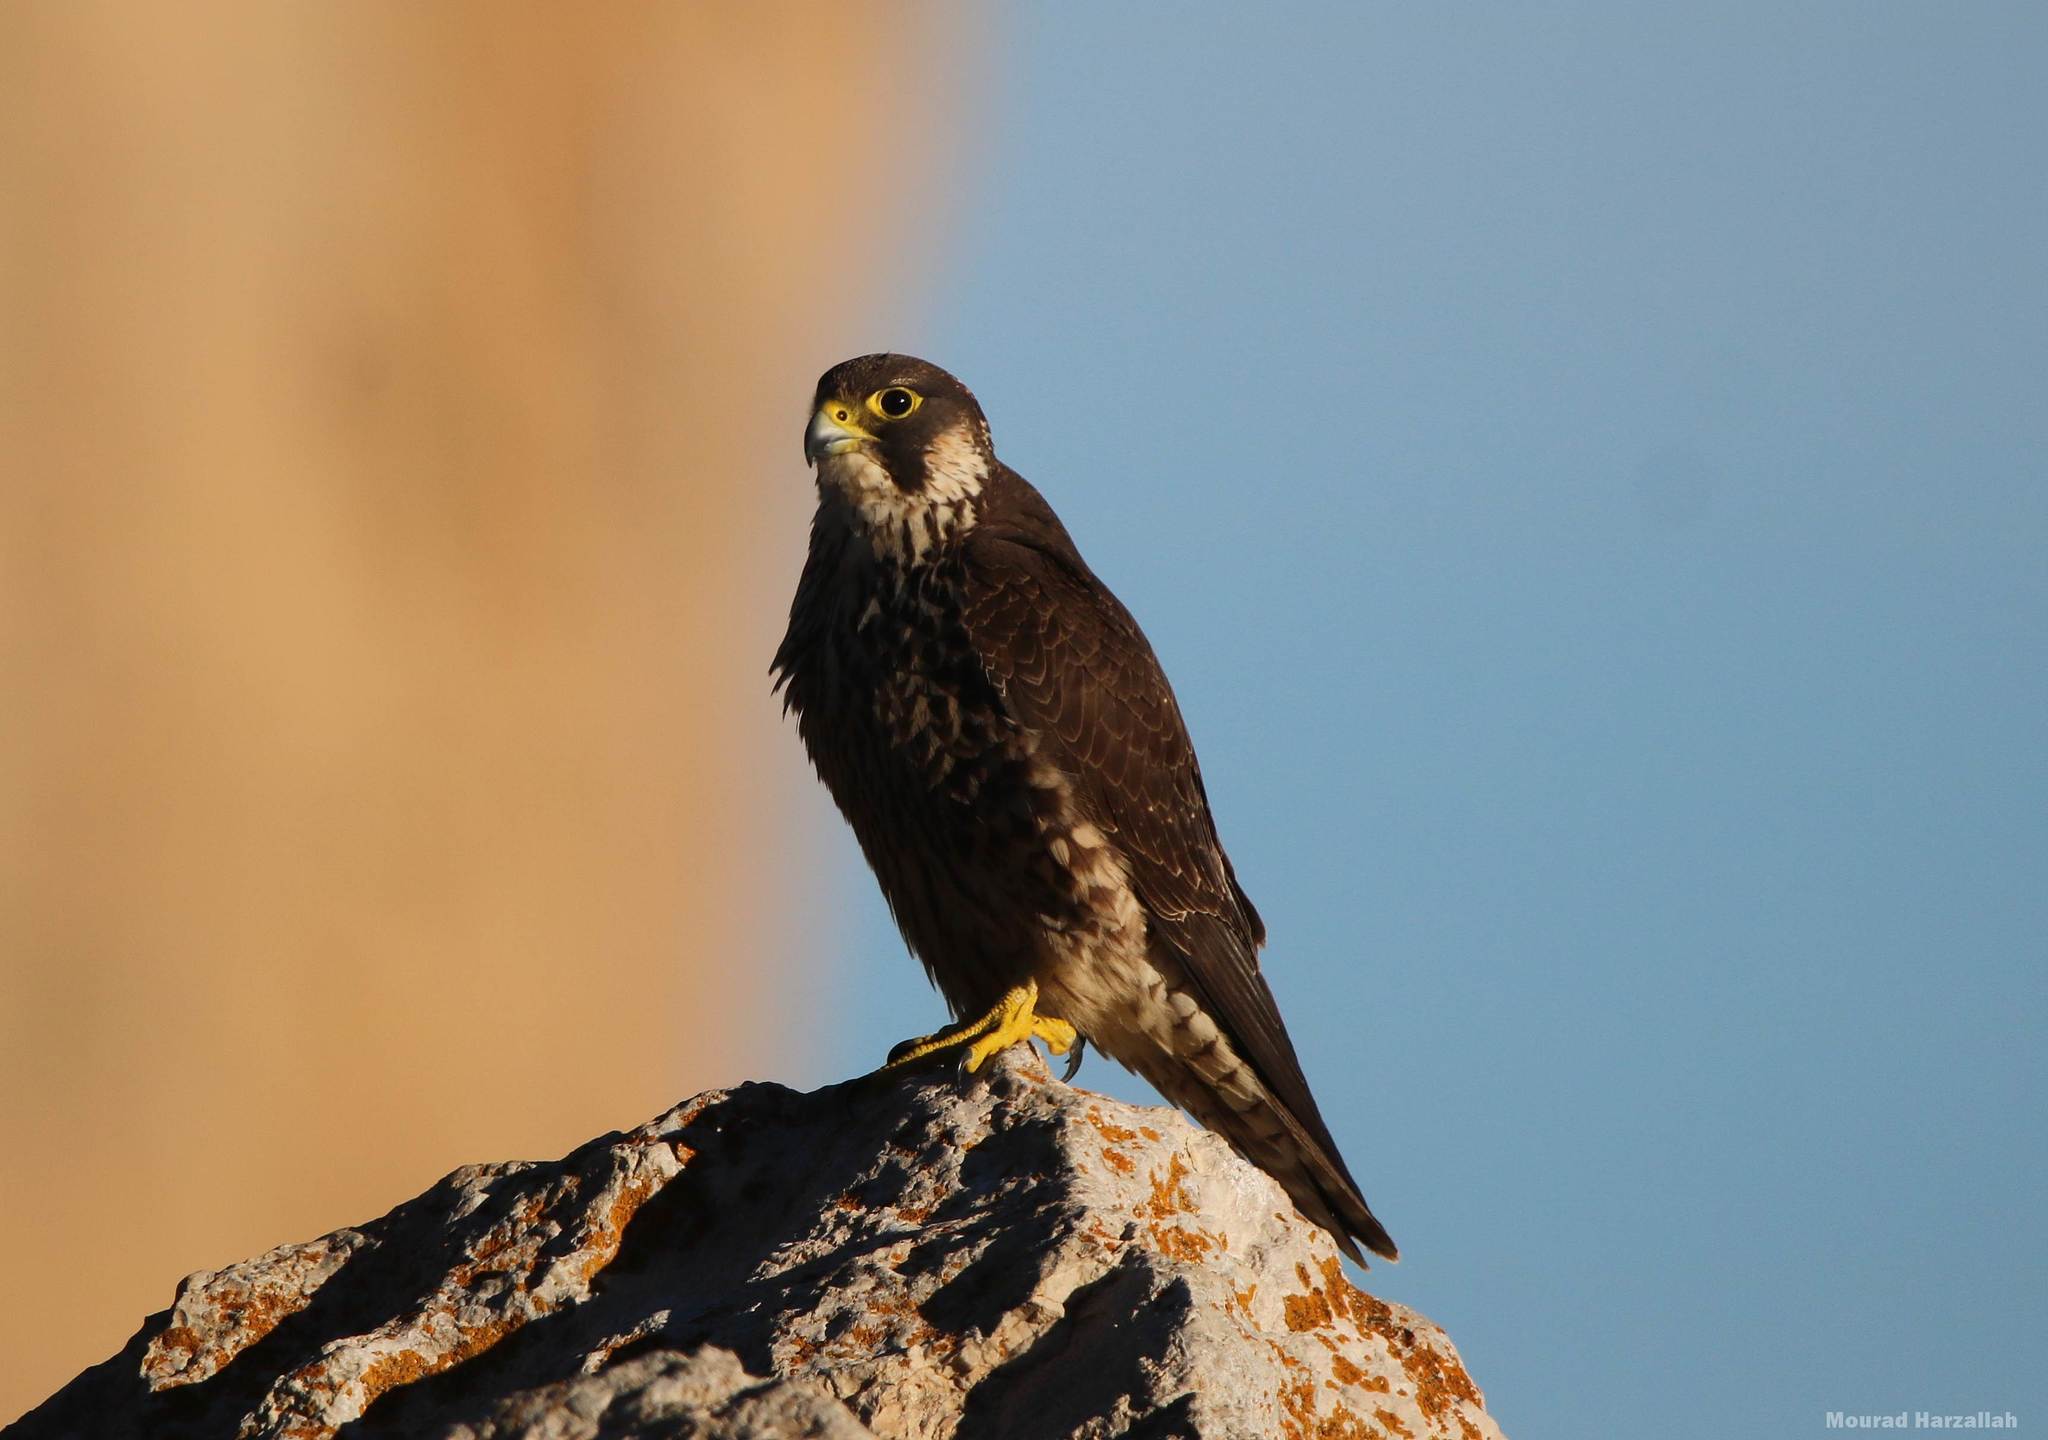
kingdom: Animalia
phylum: Chordata
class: Aves
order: Falconiformes
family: Falconidae
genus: Falco
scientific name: Falco peregrinus
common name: Peregrine falcon
